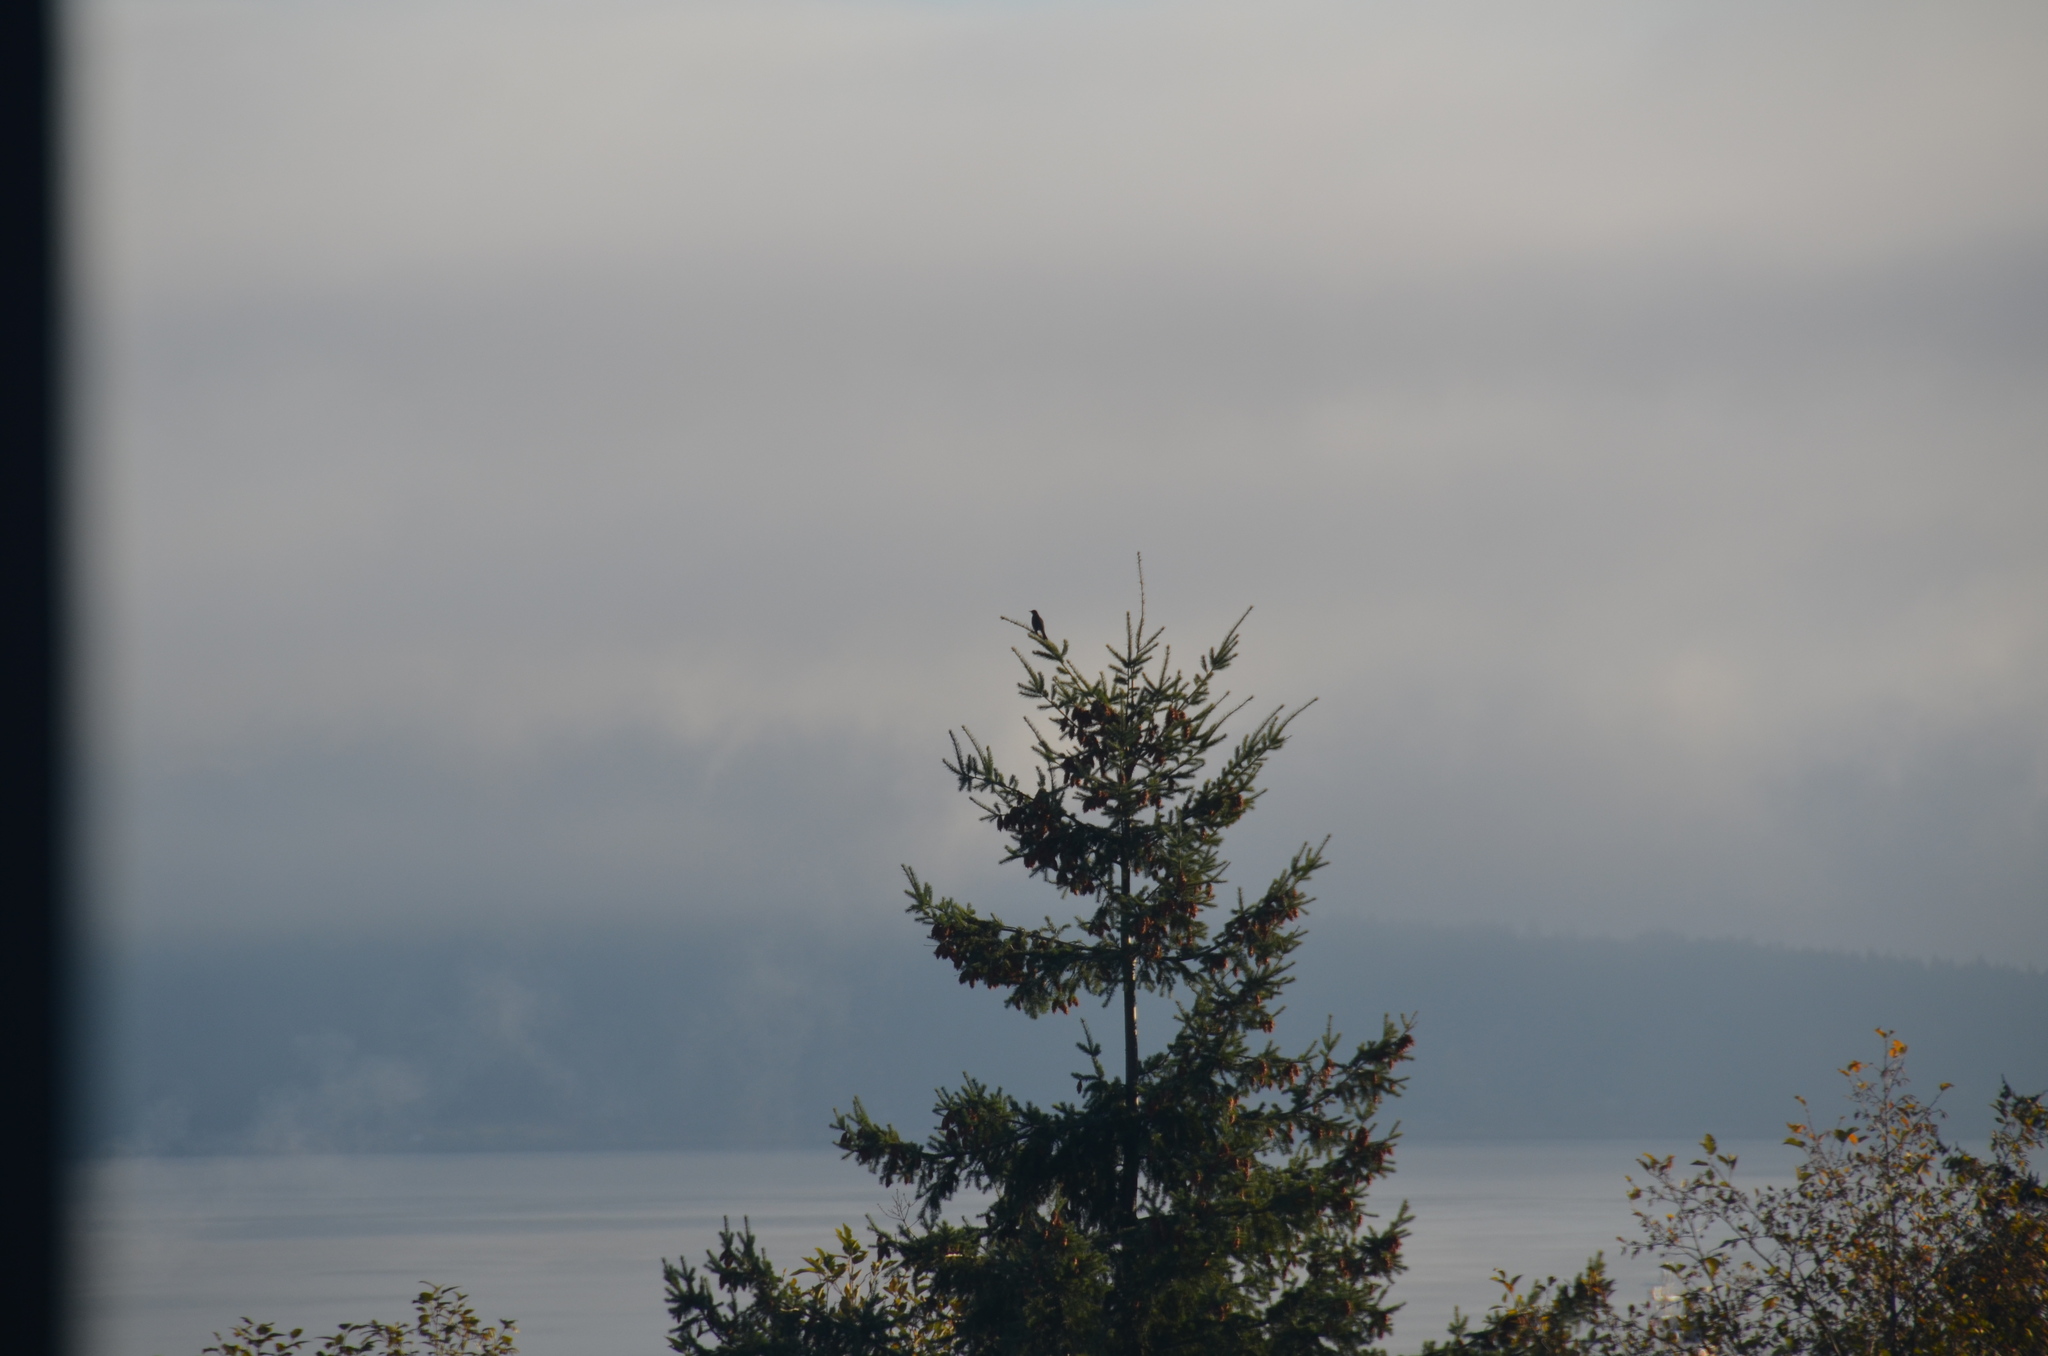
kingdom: Animalia
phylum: Chordata
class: Aves
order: Passeriformes
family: Turdidae
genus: Turdus
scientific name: Turdus migratorius
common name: American robin
